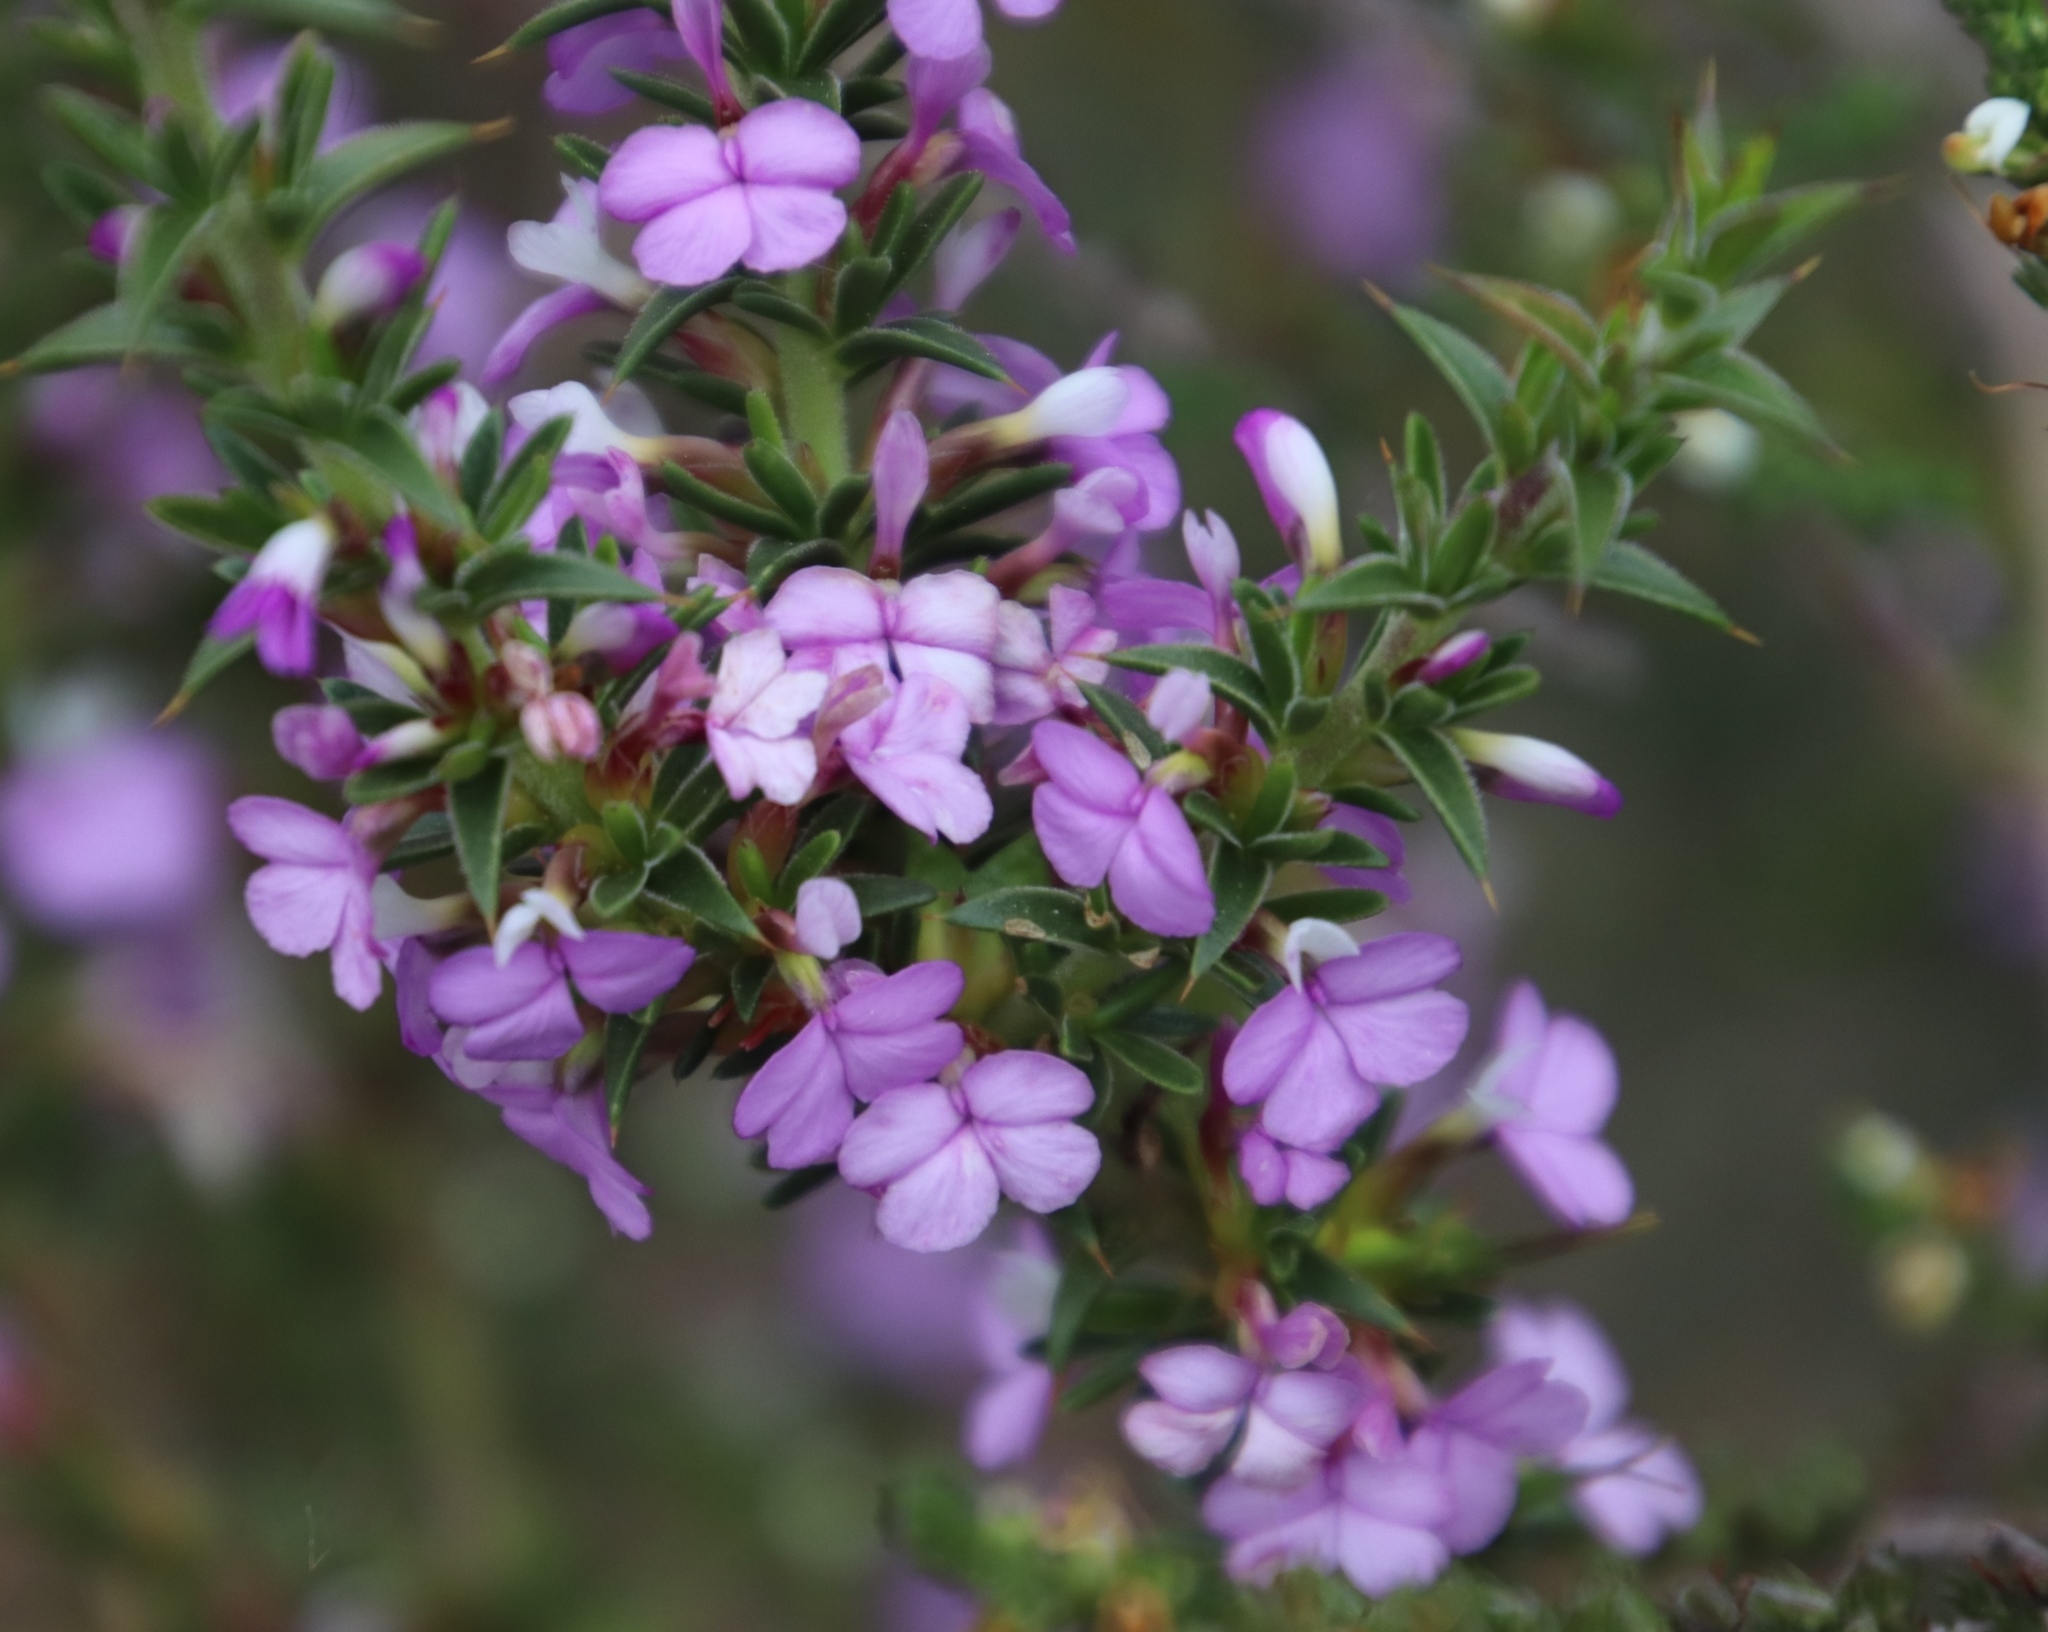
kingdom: Plantae
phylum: Tracheophyta
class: Magnoliopsida
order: Fabales
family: Polygalaceae
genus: Muraltia
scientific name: Muraltia heisteria
